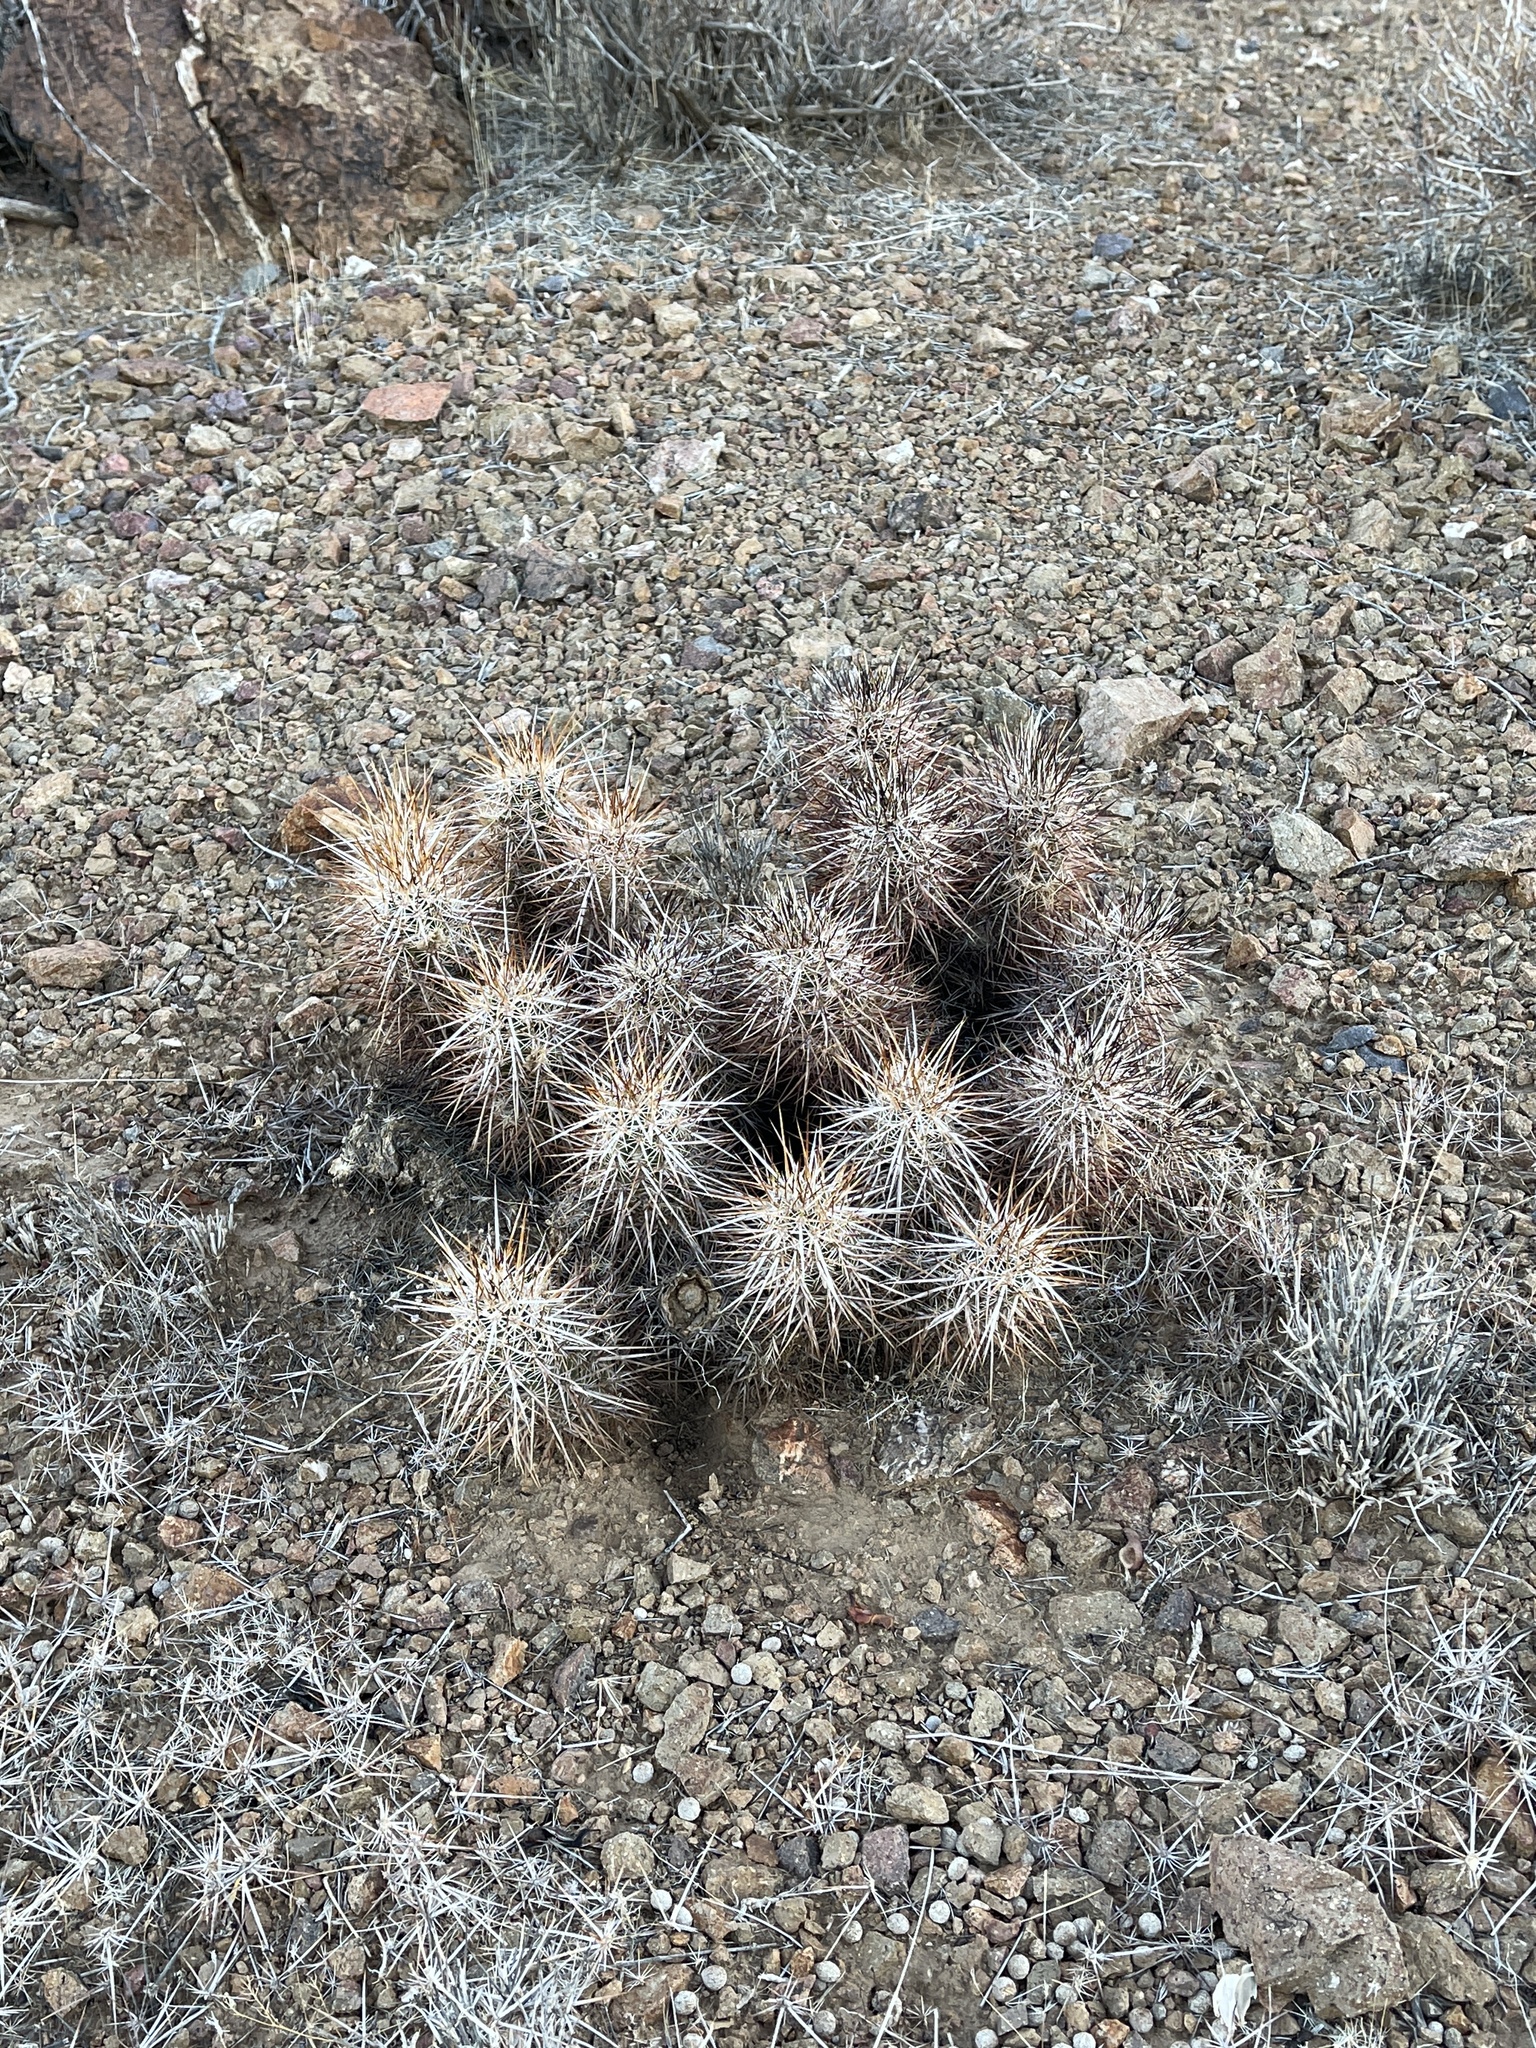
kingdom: Plantae
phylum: Tracheophyta
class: Magnoliopsida
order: Caryophyllales
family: Cactaceae
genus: Echinocereus
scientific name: Echinocereus engelmannii
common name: Engelmann's hedgehog cactus
